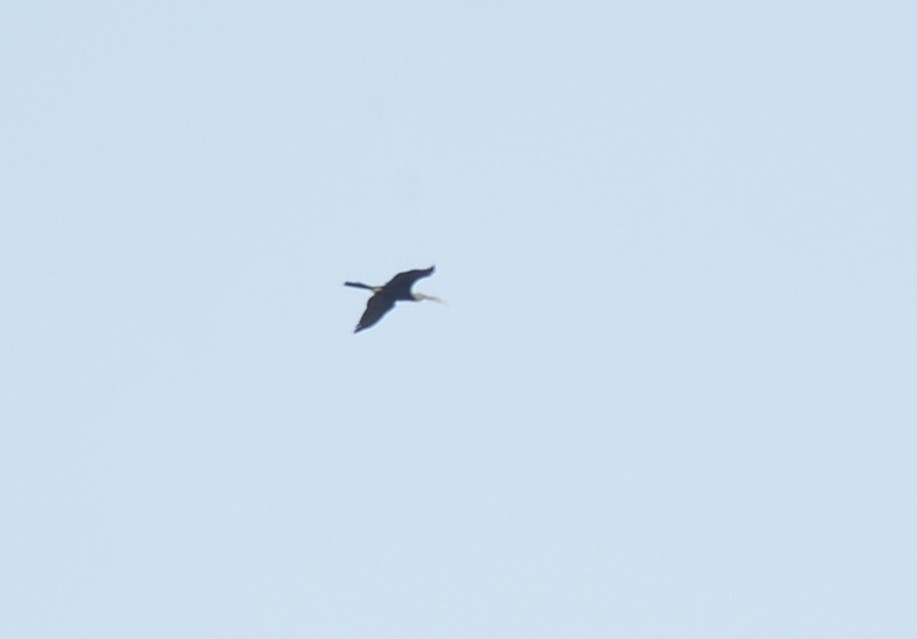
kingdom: Animalia
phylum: Chordata
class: Aves
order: Suliformes
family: Anhingidae
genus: Anhinga
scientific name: Anhinga melanogaster
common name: Oriental darter
